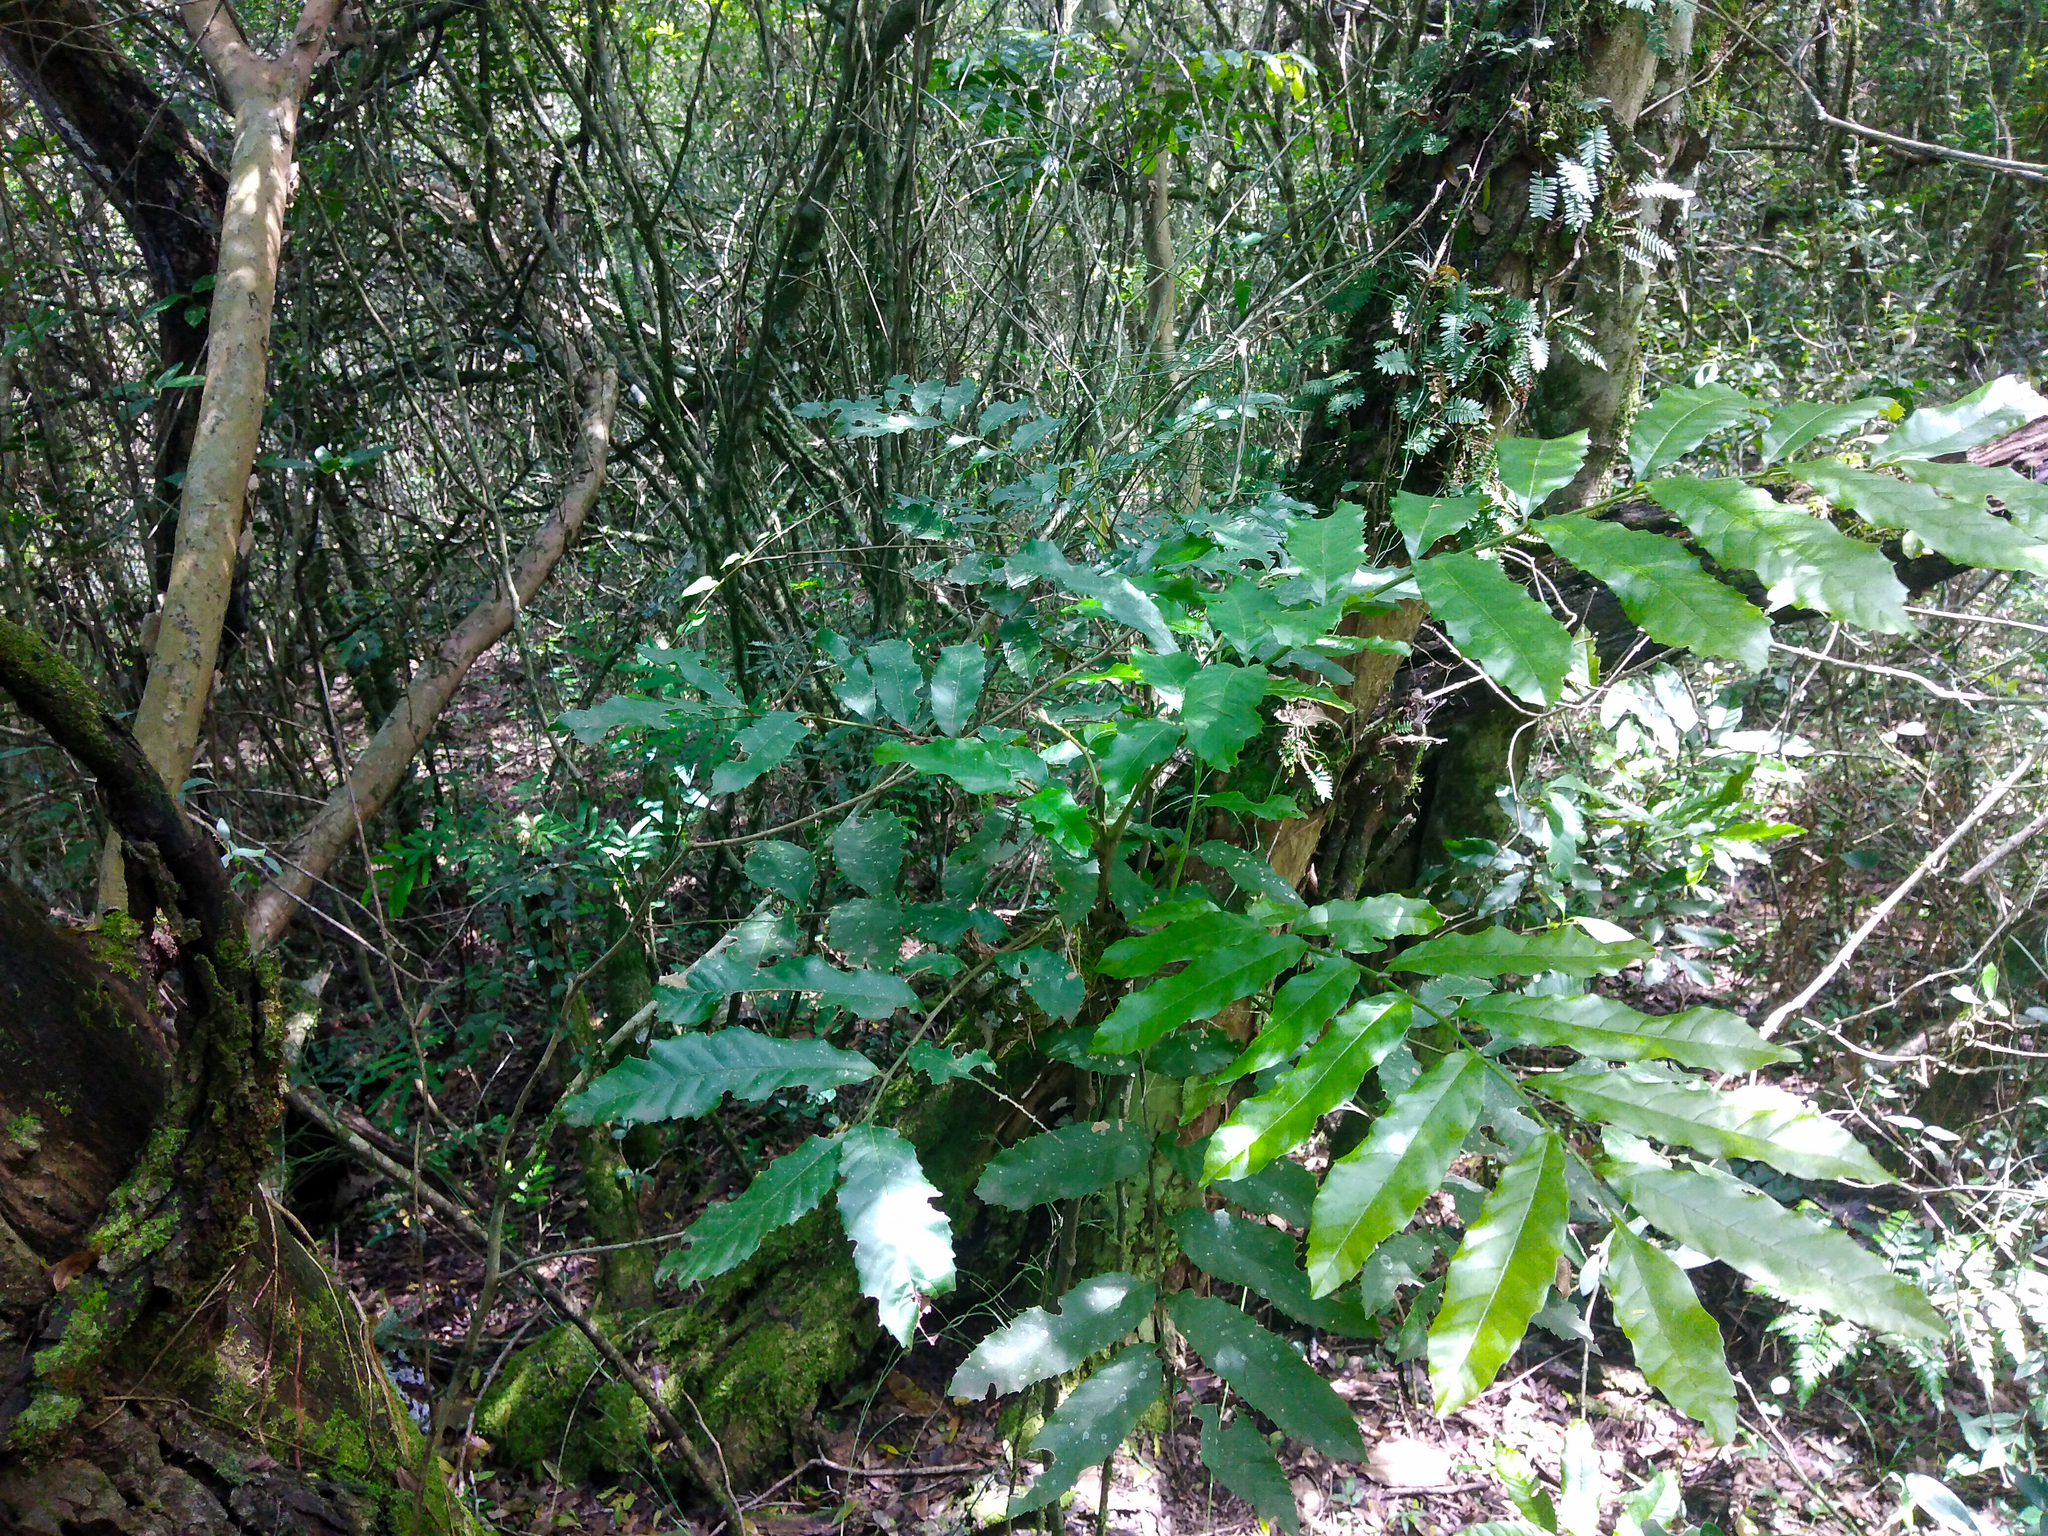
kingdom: Plantae
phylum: Tracheophyta
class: Magnoliopsida
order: Sapindales
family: Sapindaceae
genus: Cupania
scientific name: Cupania vernalis
